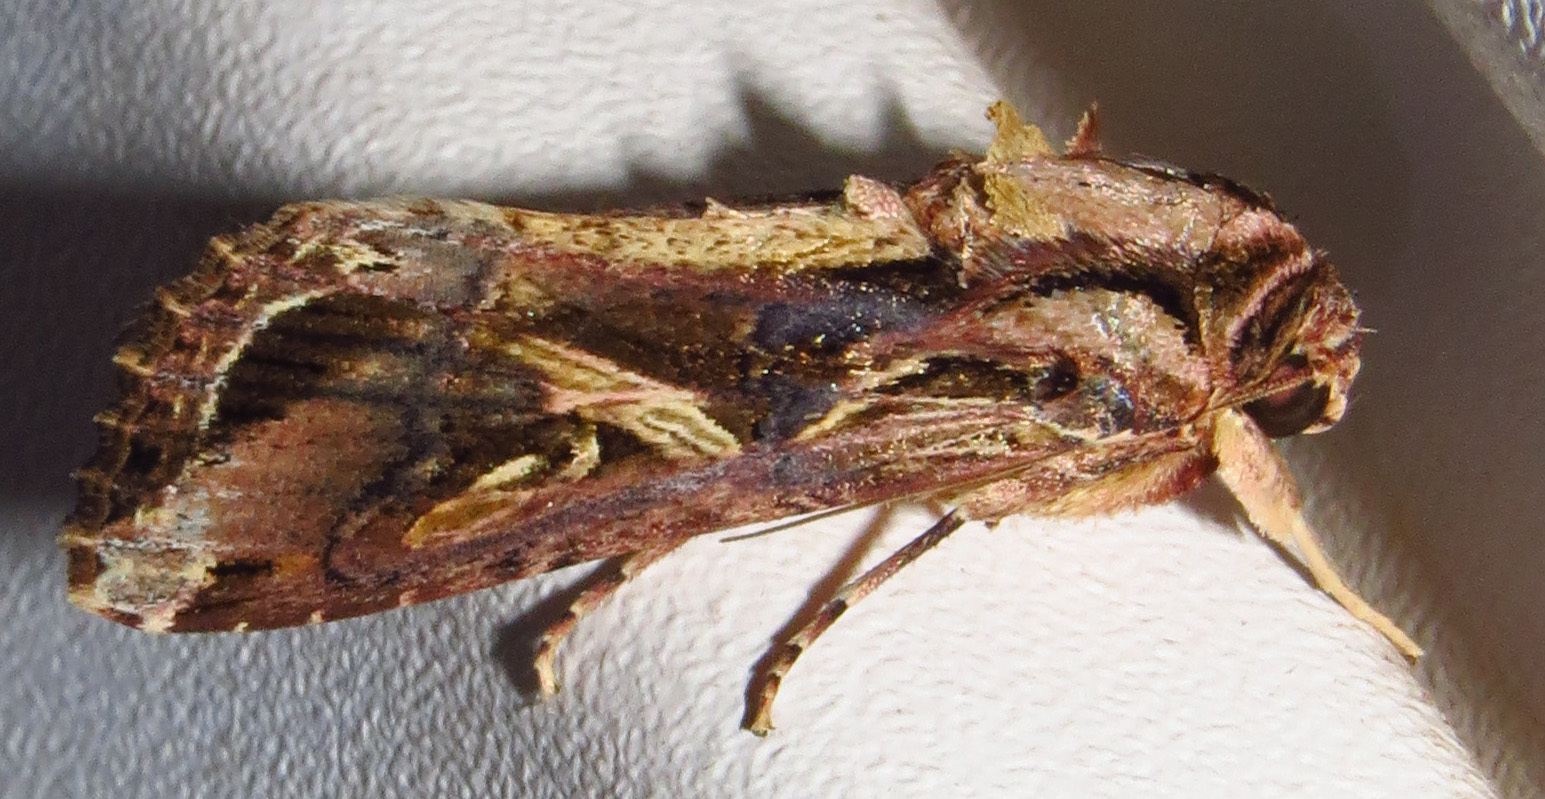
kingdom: Animalia
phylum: Arthropoda
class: Insecta
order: Lepidoptera
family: Noctuidae
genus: Spodoptera
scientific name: Spodoptera dolichos
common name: Sweetpotato armyworm
